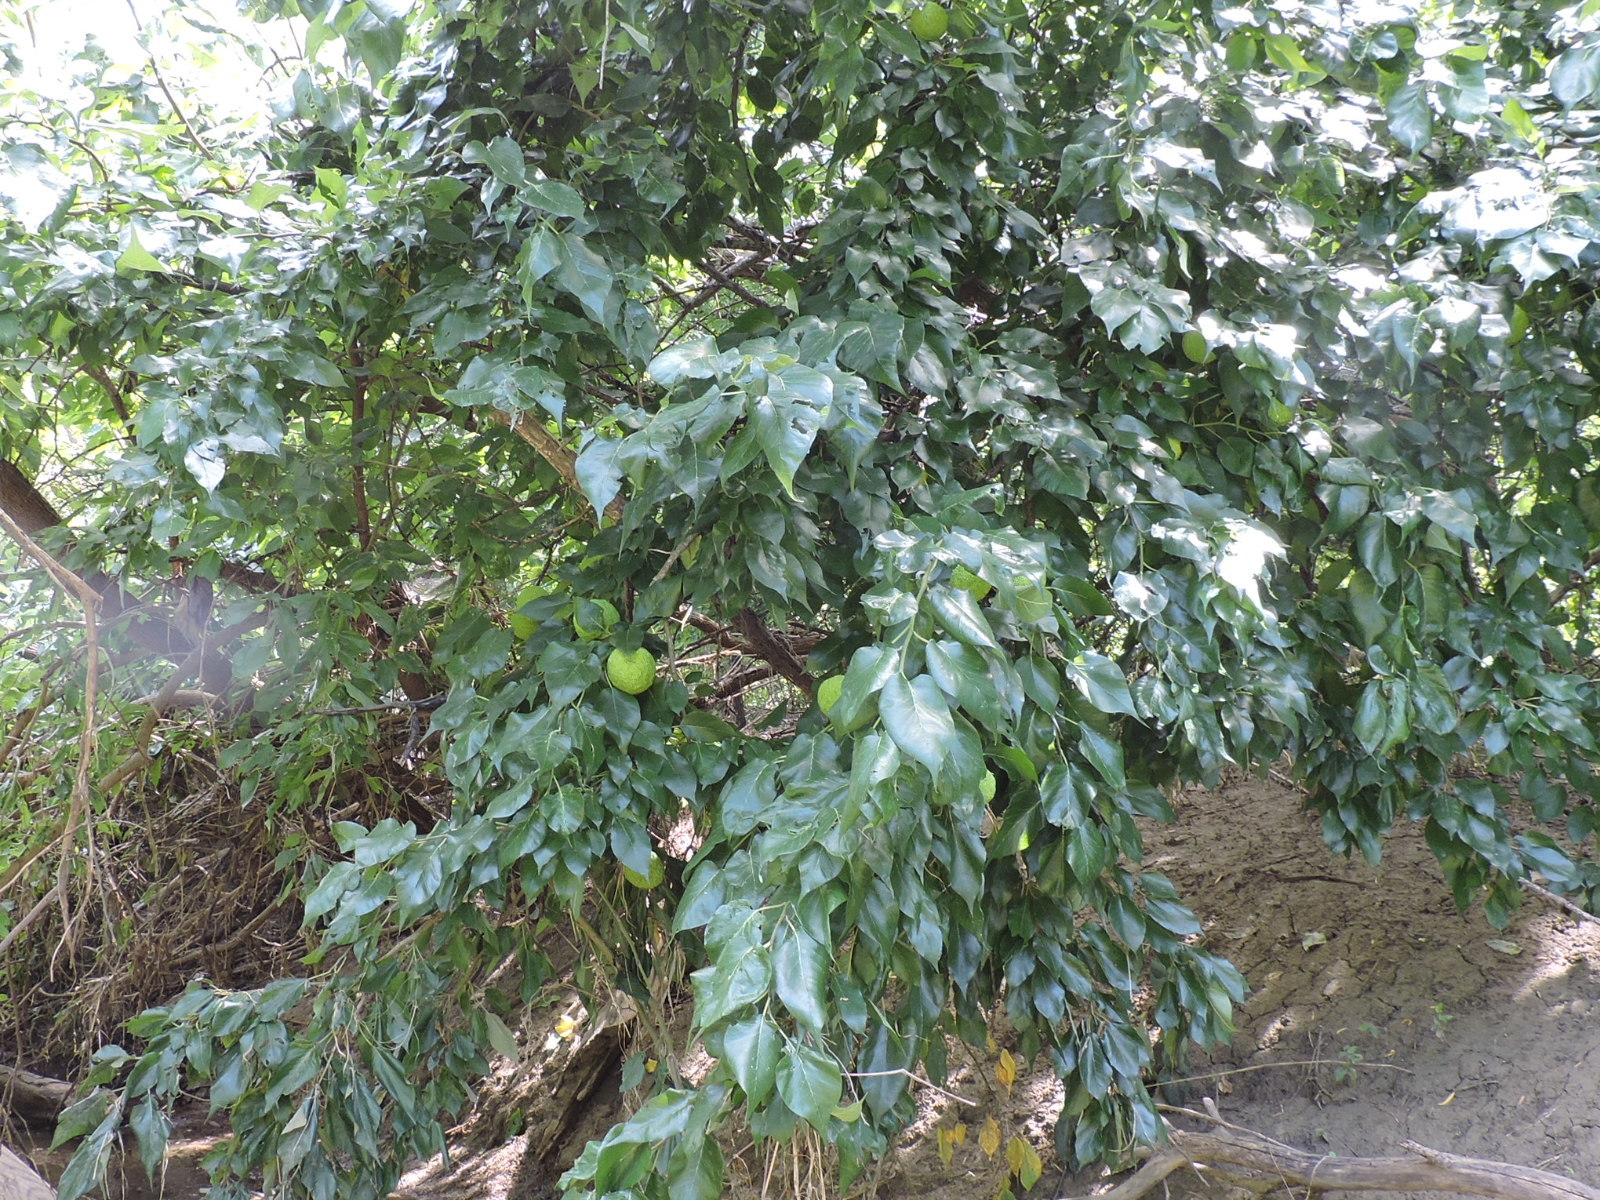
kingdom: Plantae
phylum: Tracheophyta
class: Magnoliopsida
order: Rosales
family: Moraceae
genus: Maclura
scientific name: Maclura pomifera
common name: Osage-orange
